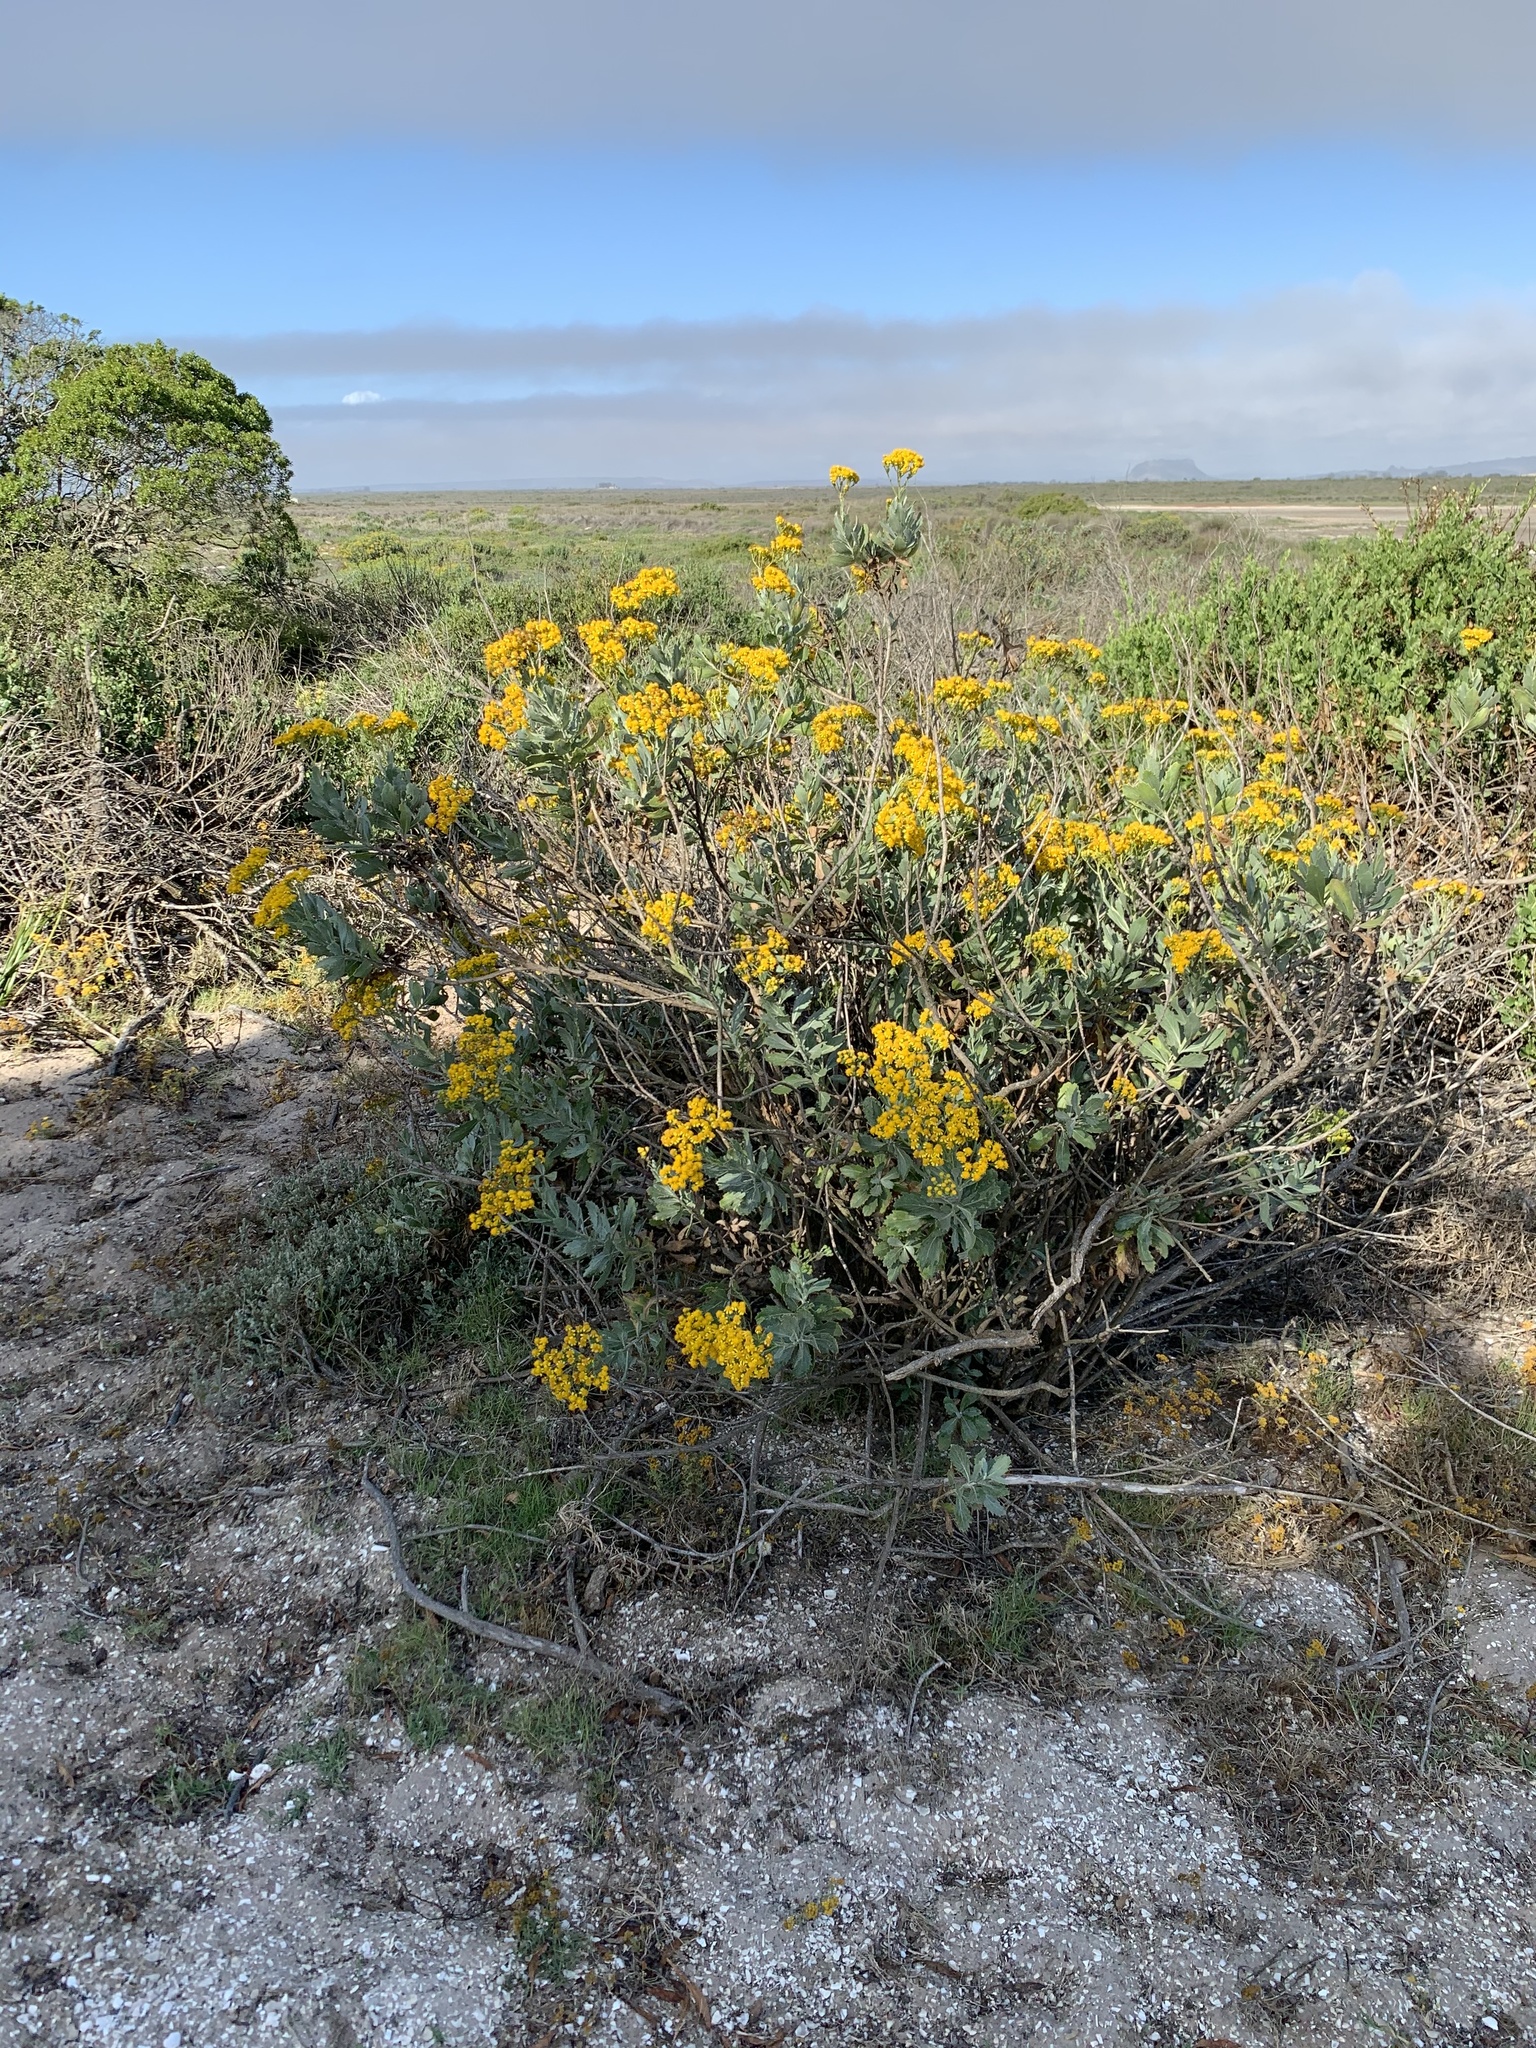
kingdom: Plantae
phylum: Tracheophyta
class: Magnoliopsida
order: Asterales
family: Asteraceae
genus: Senecio
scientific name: Senecio halimifolius
